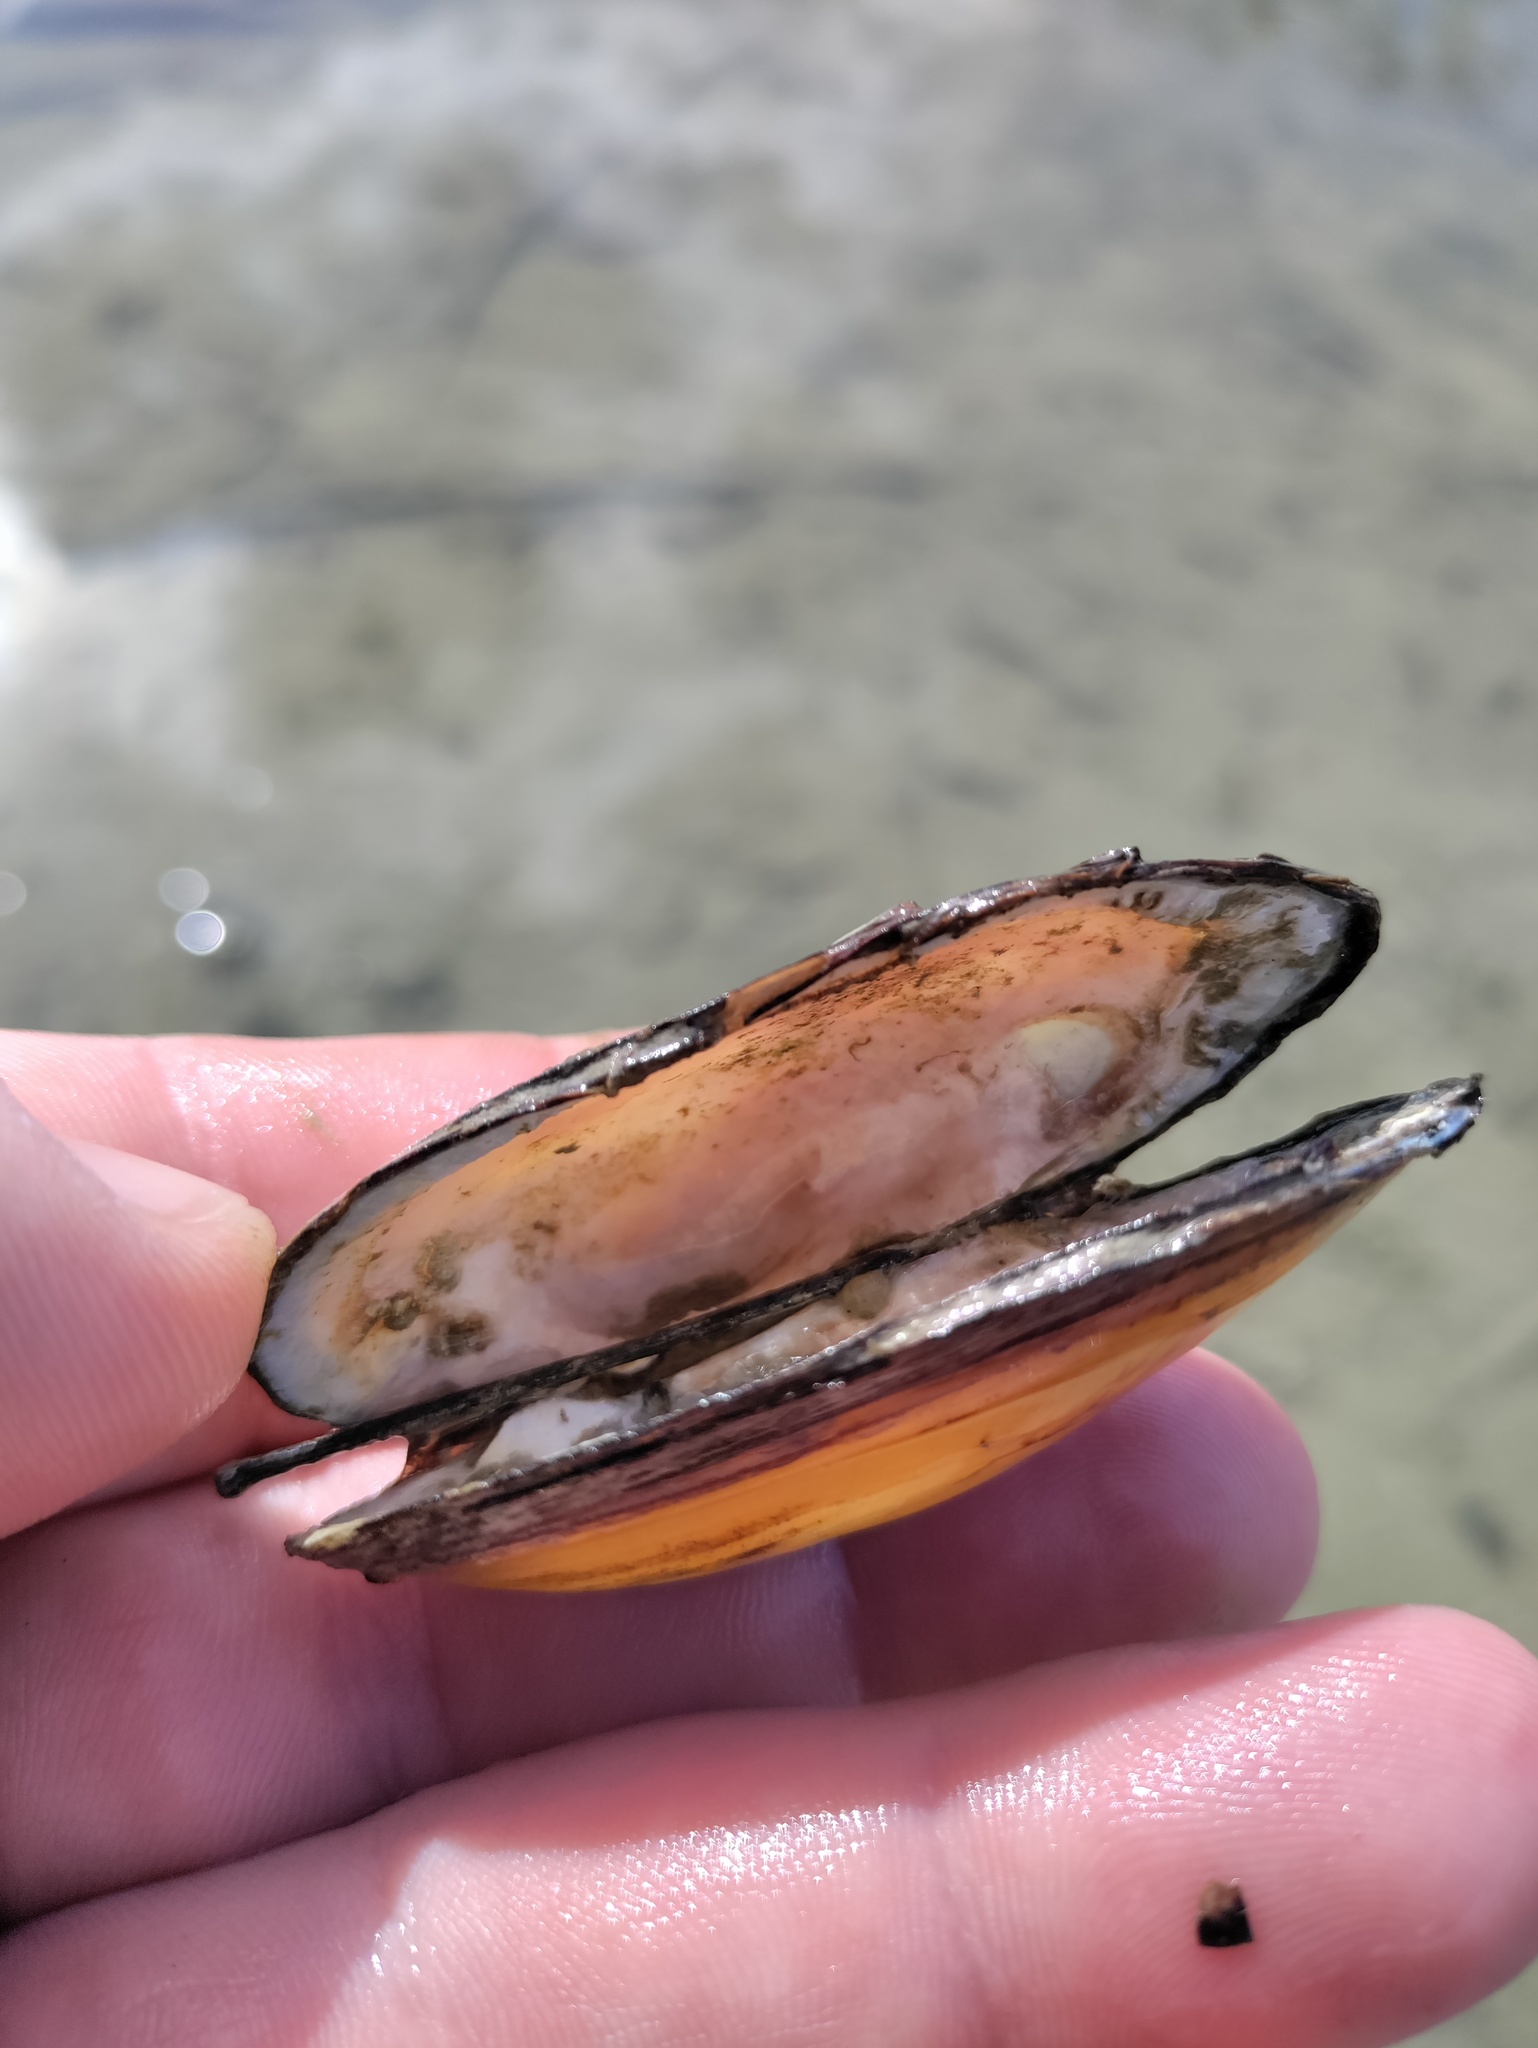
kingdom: Animalia
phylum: Mollusca
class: Bivalvia
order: Unionida
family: Unionidae
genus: Unio
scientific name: Unio pictorum
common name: Painter's mussel
